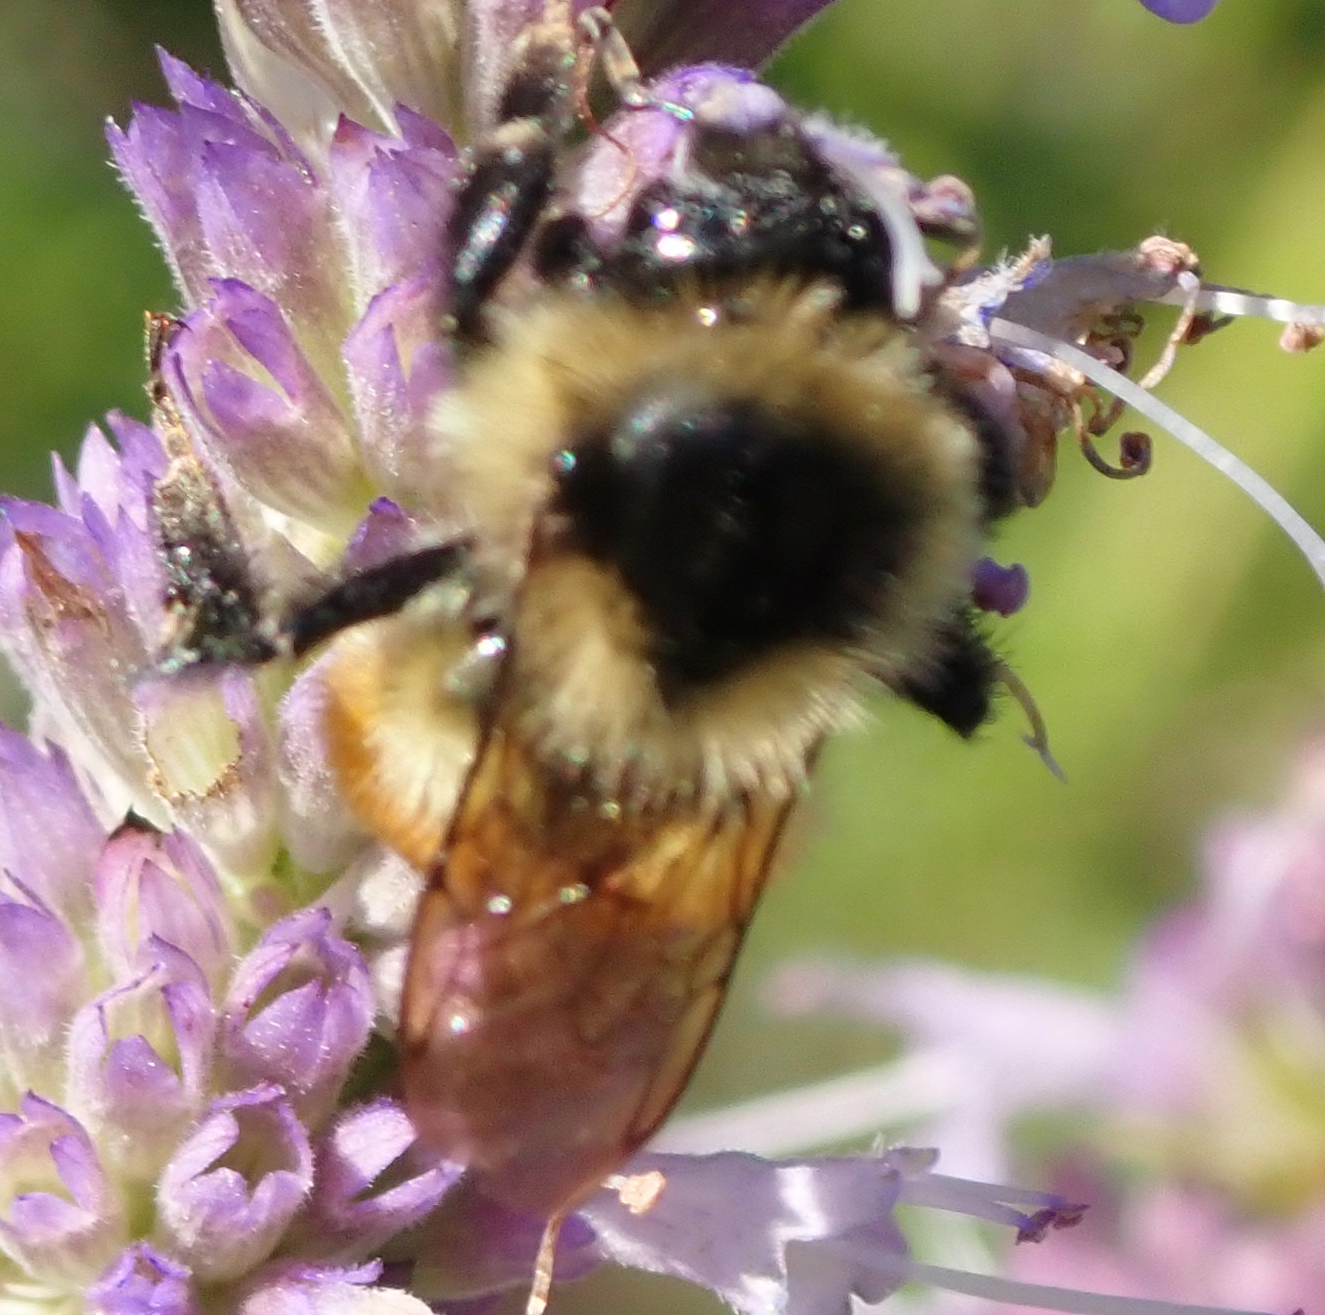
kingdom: Animalia
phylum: Arthropoda
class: Insecta
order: Hymenoptera
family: Apidae
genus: Bombus
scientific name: Bombus ternarius
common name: Tri-colored bumble bee
